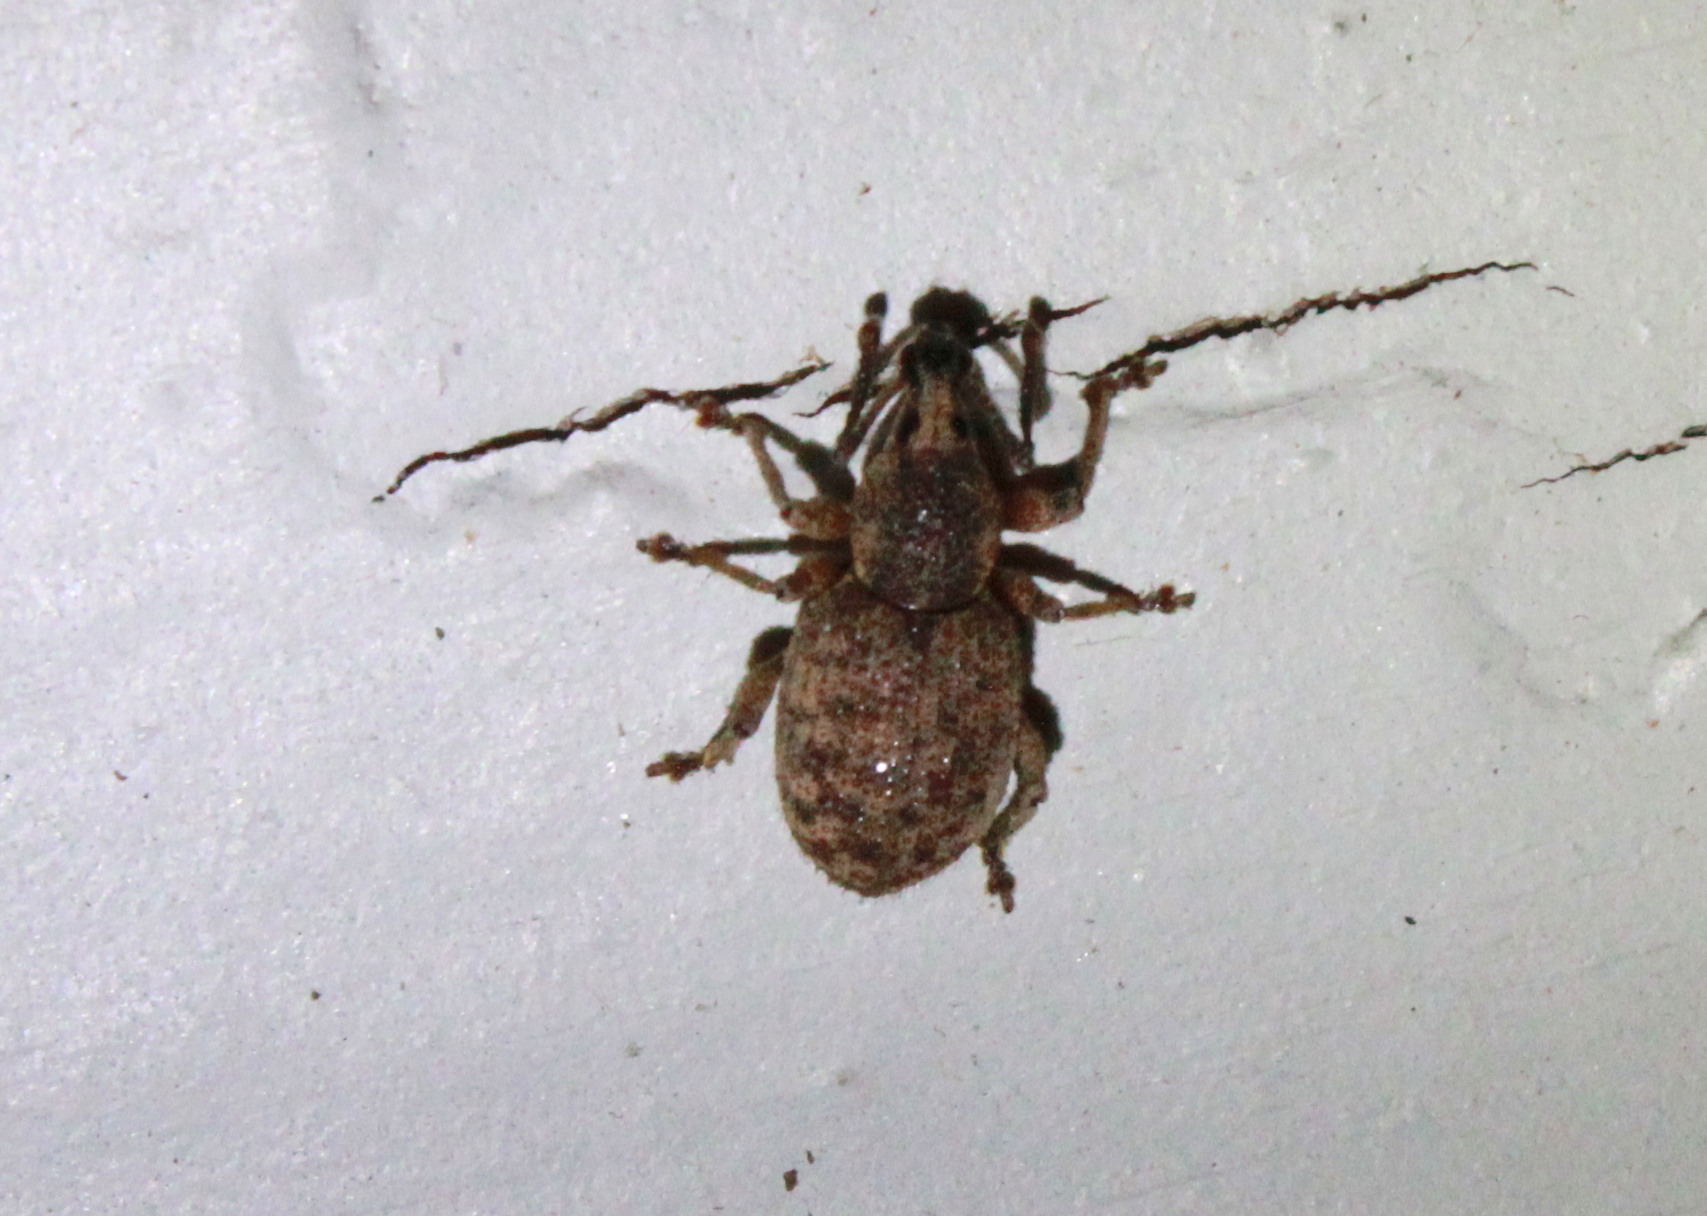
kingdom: Animalia
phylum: Arthropoda
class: Insecta
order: Coleoptera
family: Curculionidae
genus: Otiorhynchus
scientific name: Otiorhynchus singularis
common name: Clay-coloured weevil
